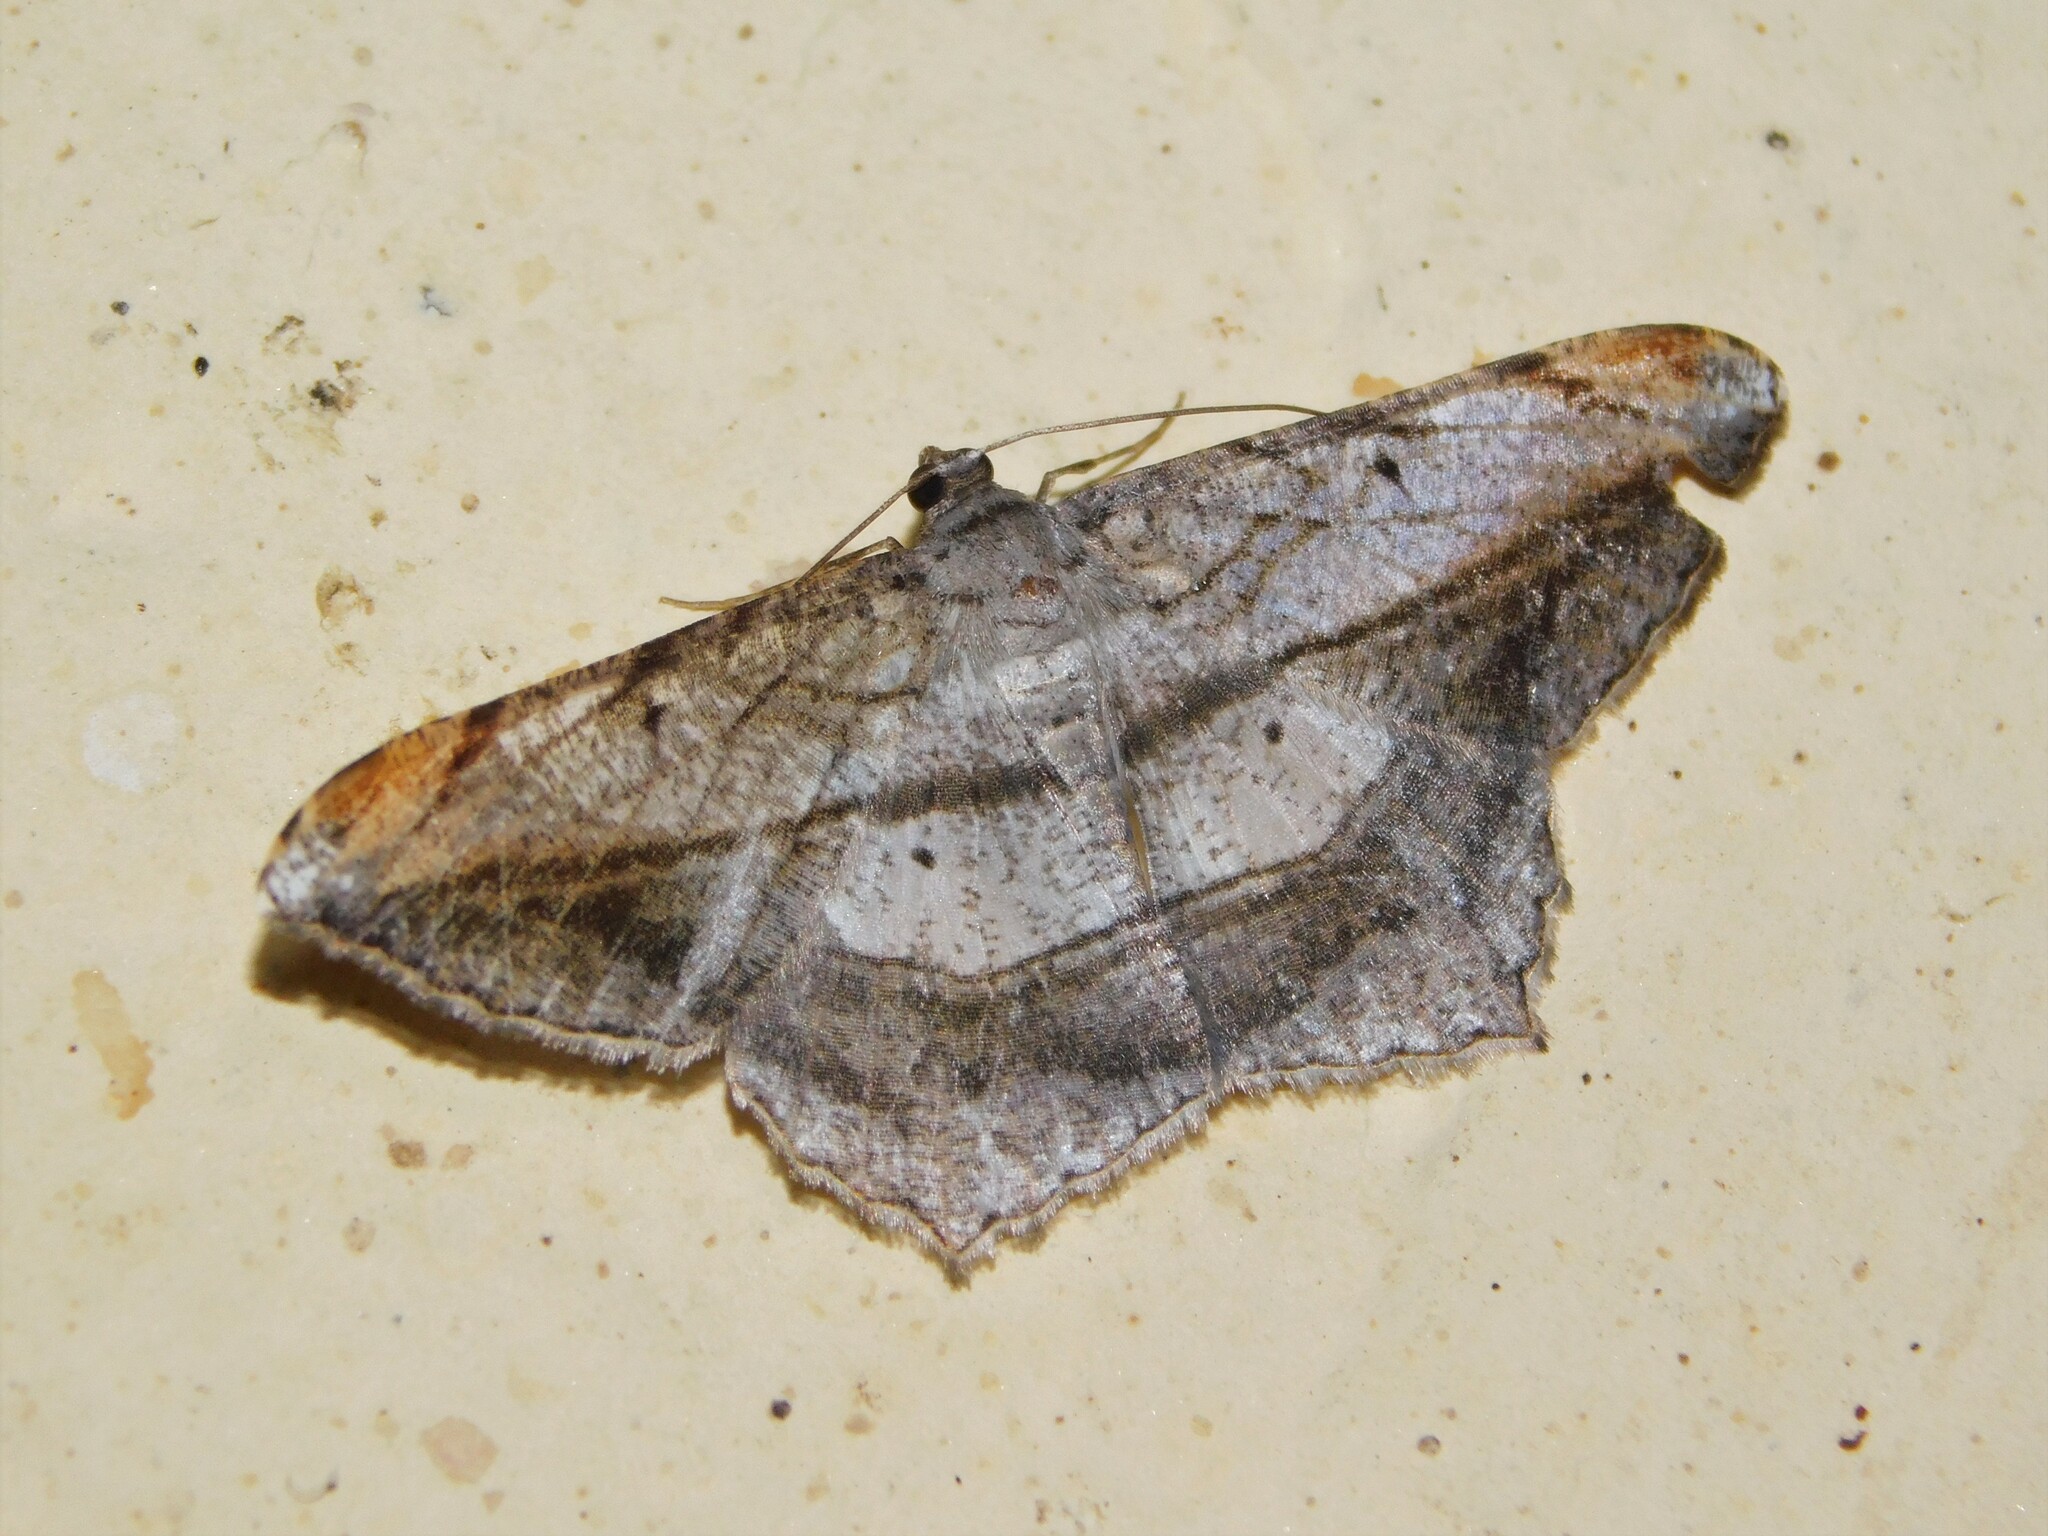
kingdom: Animalia
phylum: Arthropoda
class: Insecta
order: Lepidoptera
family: Geometridae
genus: Chiasmia
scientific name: Chiasmia fulvisparsa
